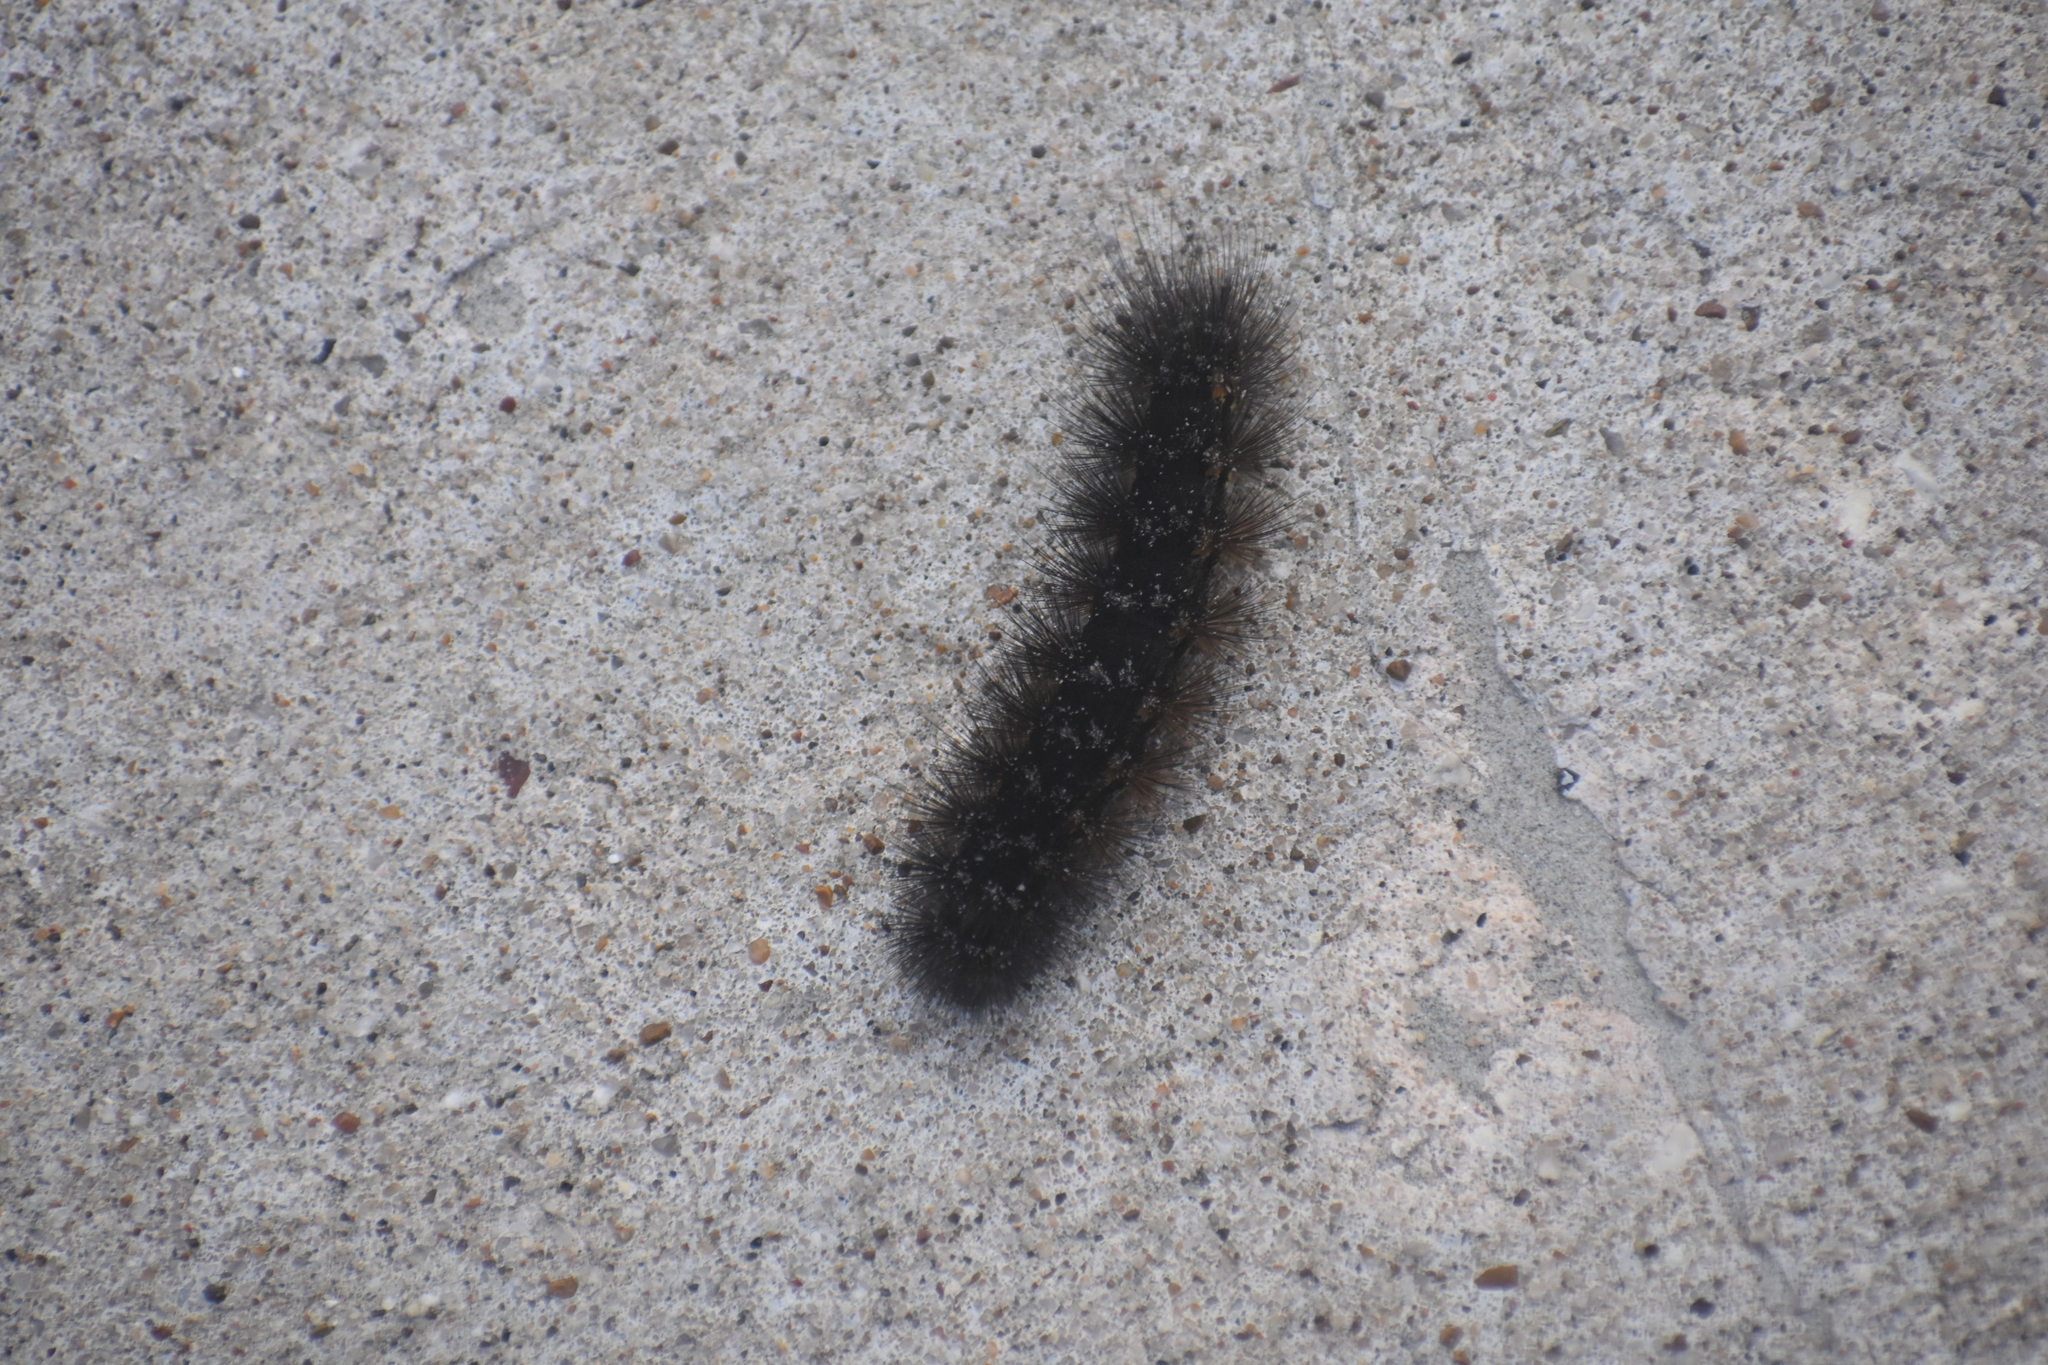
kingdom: Animalia
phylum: Arthropoda
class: Insecta
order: Lepidoptera
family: Erebidae
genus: Estigmene
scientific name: Estigmene acrea
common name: Salt marsh moth
